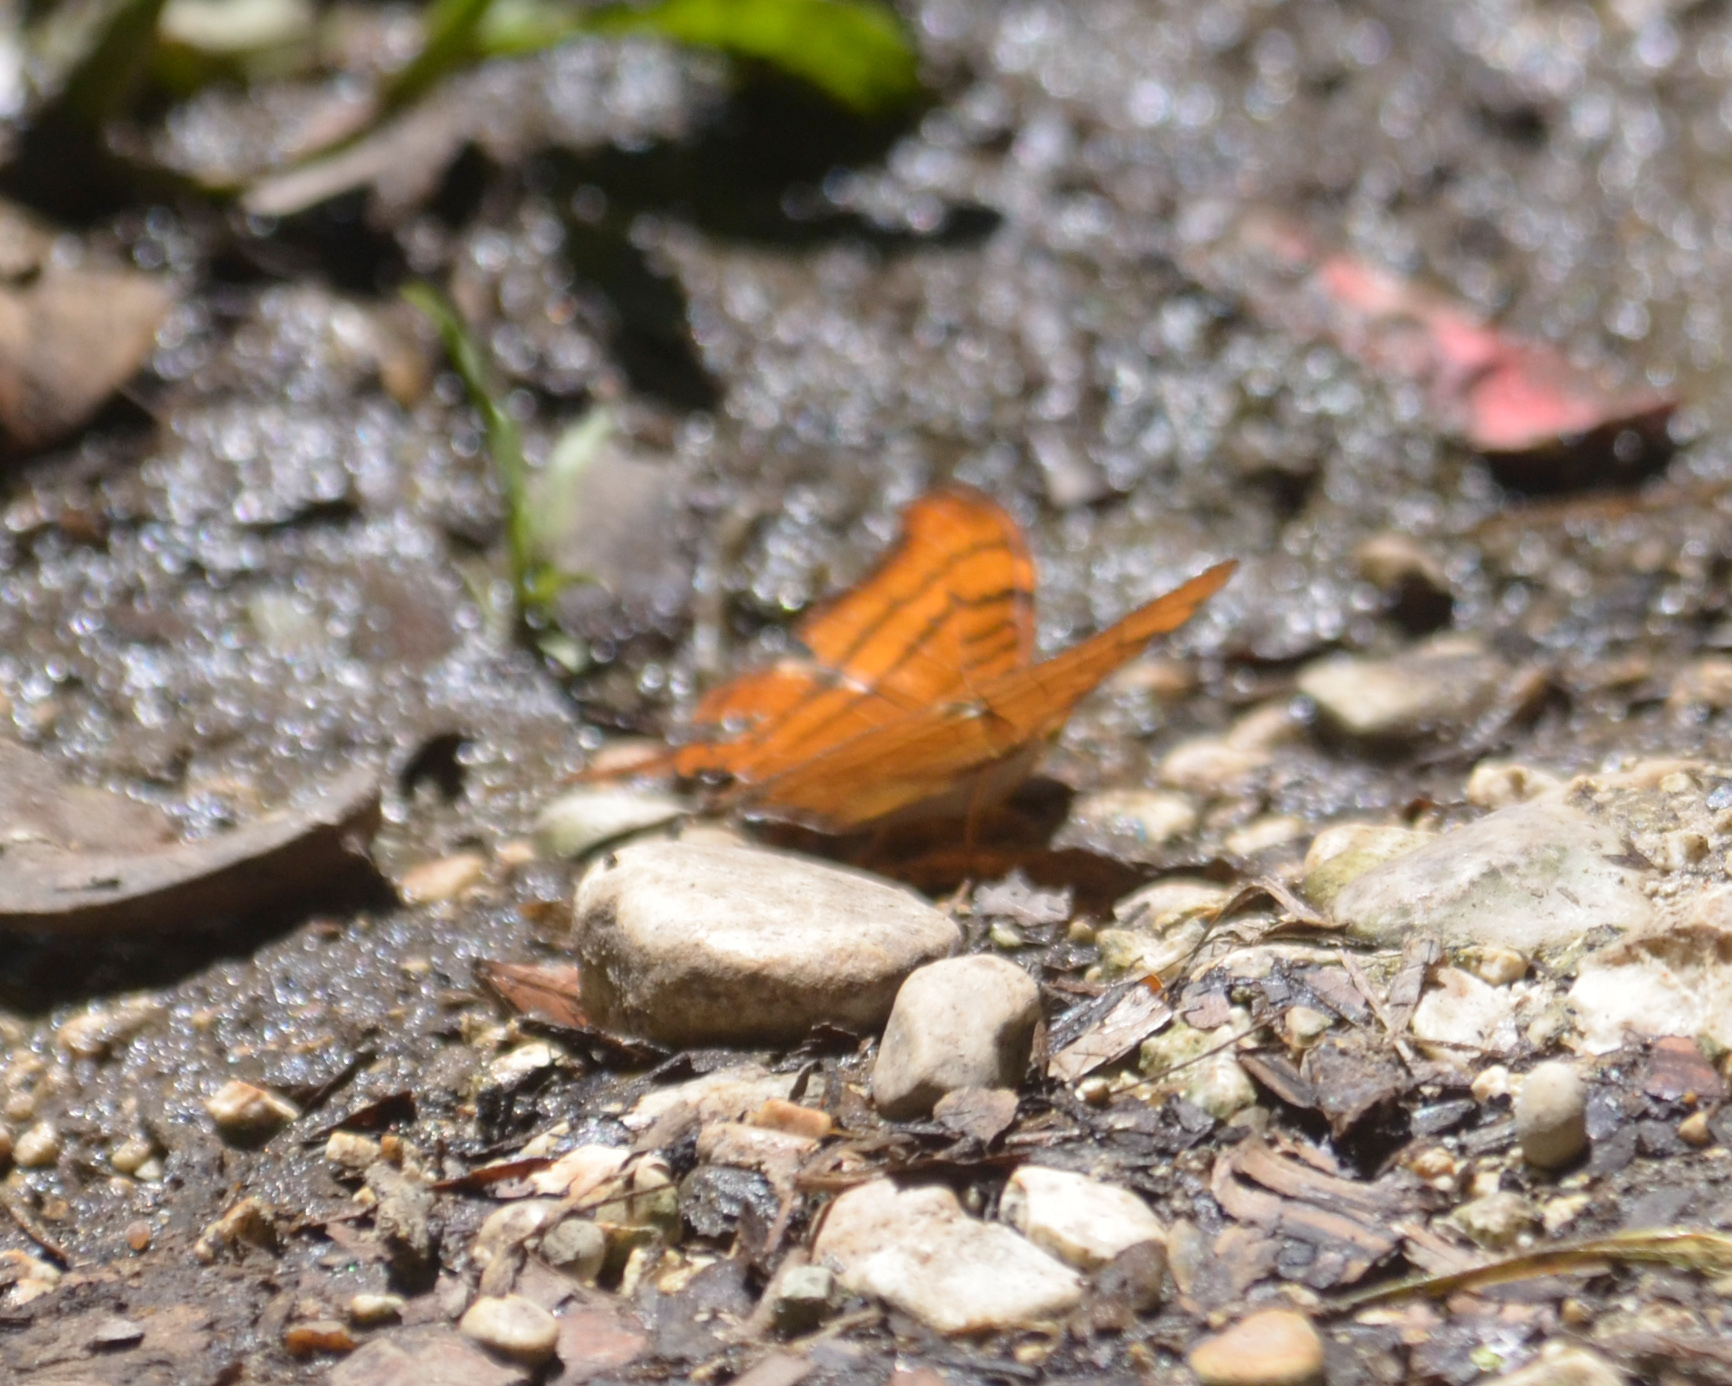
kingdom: Animalia
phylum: Arthropoda
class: Insecta
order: Lepidoptera
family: Nymphalidae
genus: Marpesia
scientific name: Marpesia eleuchea
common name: Antillean daggerwing
